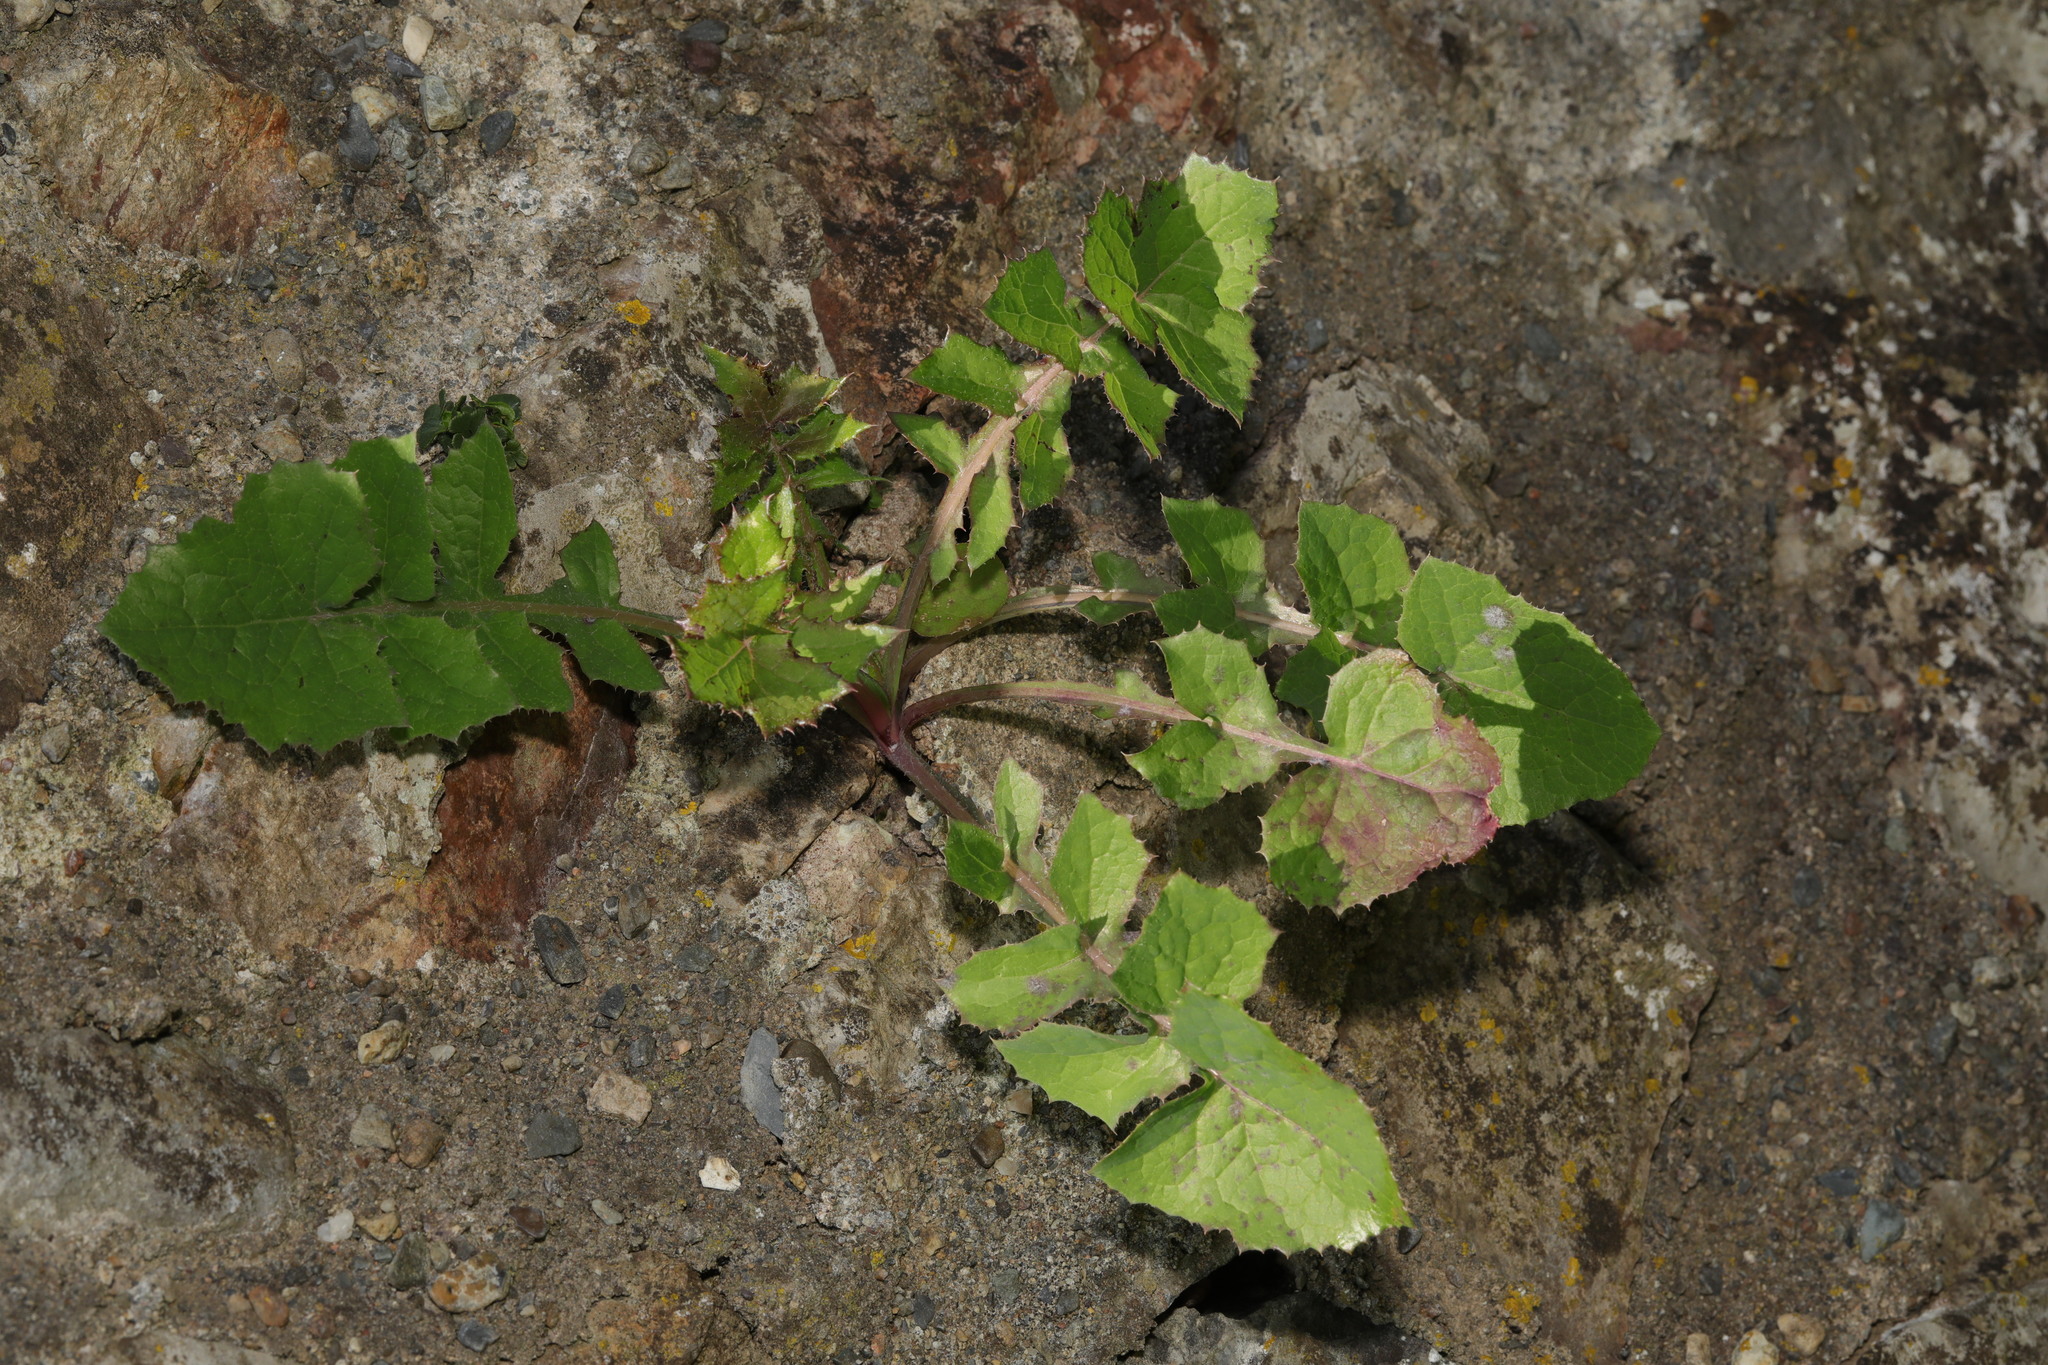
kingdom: Plantae
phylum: Tracheophyta
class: Magnoliopsida
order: Asterales
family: Asteraceae
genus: Sonchus
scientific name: Sonchus oleraceus
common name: Common sowthistle
